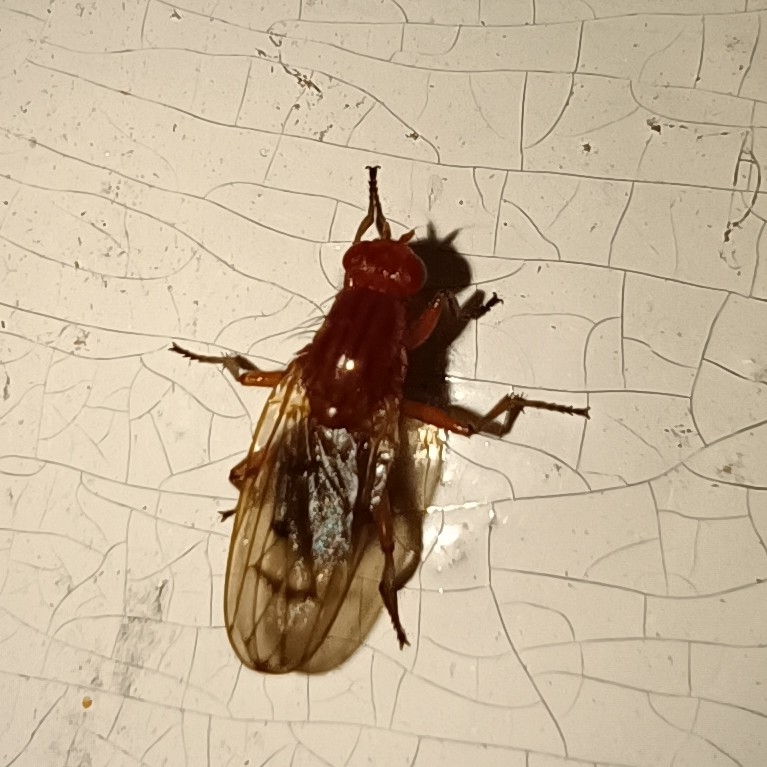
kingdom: Animalia
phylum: Arthropoda
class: Insecta
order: Diptera
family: Dryomyzidae
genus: Dryomyza
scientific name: Dryomyza anilis
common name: Marsh fly
